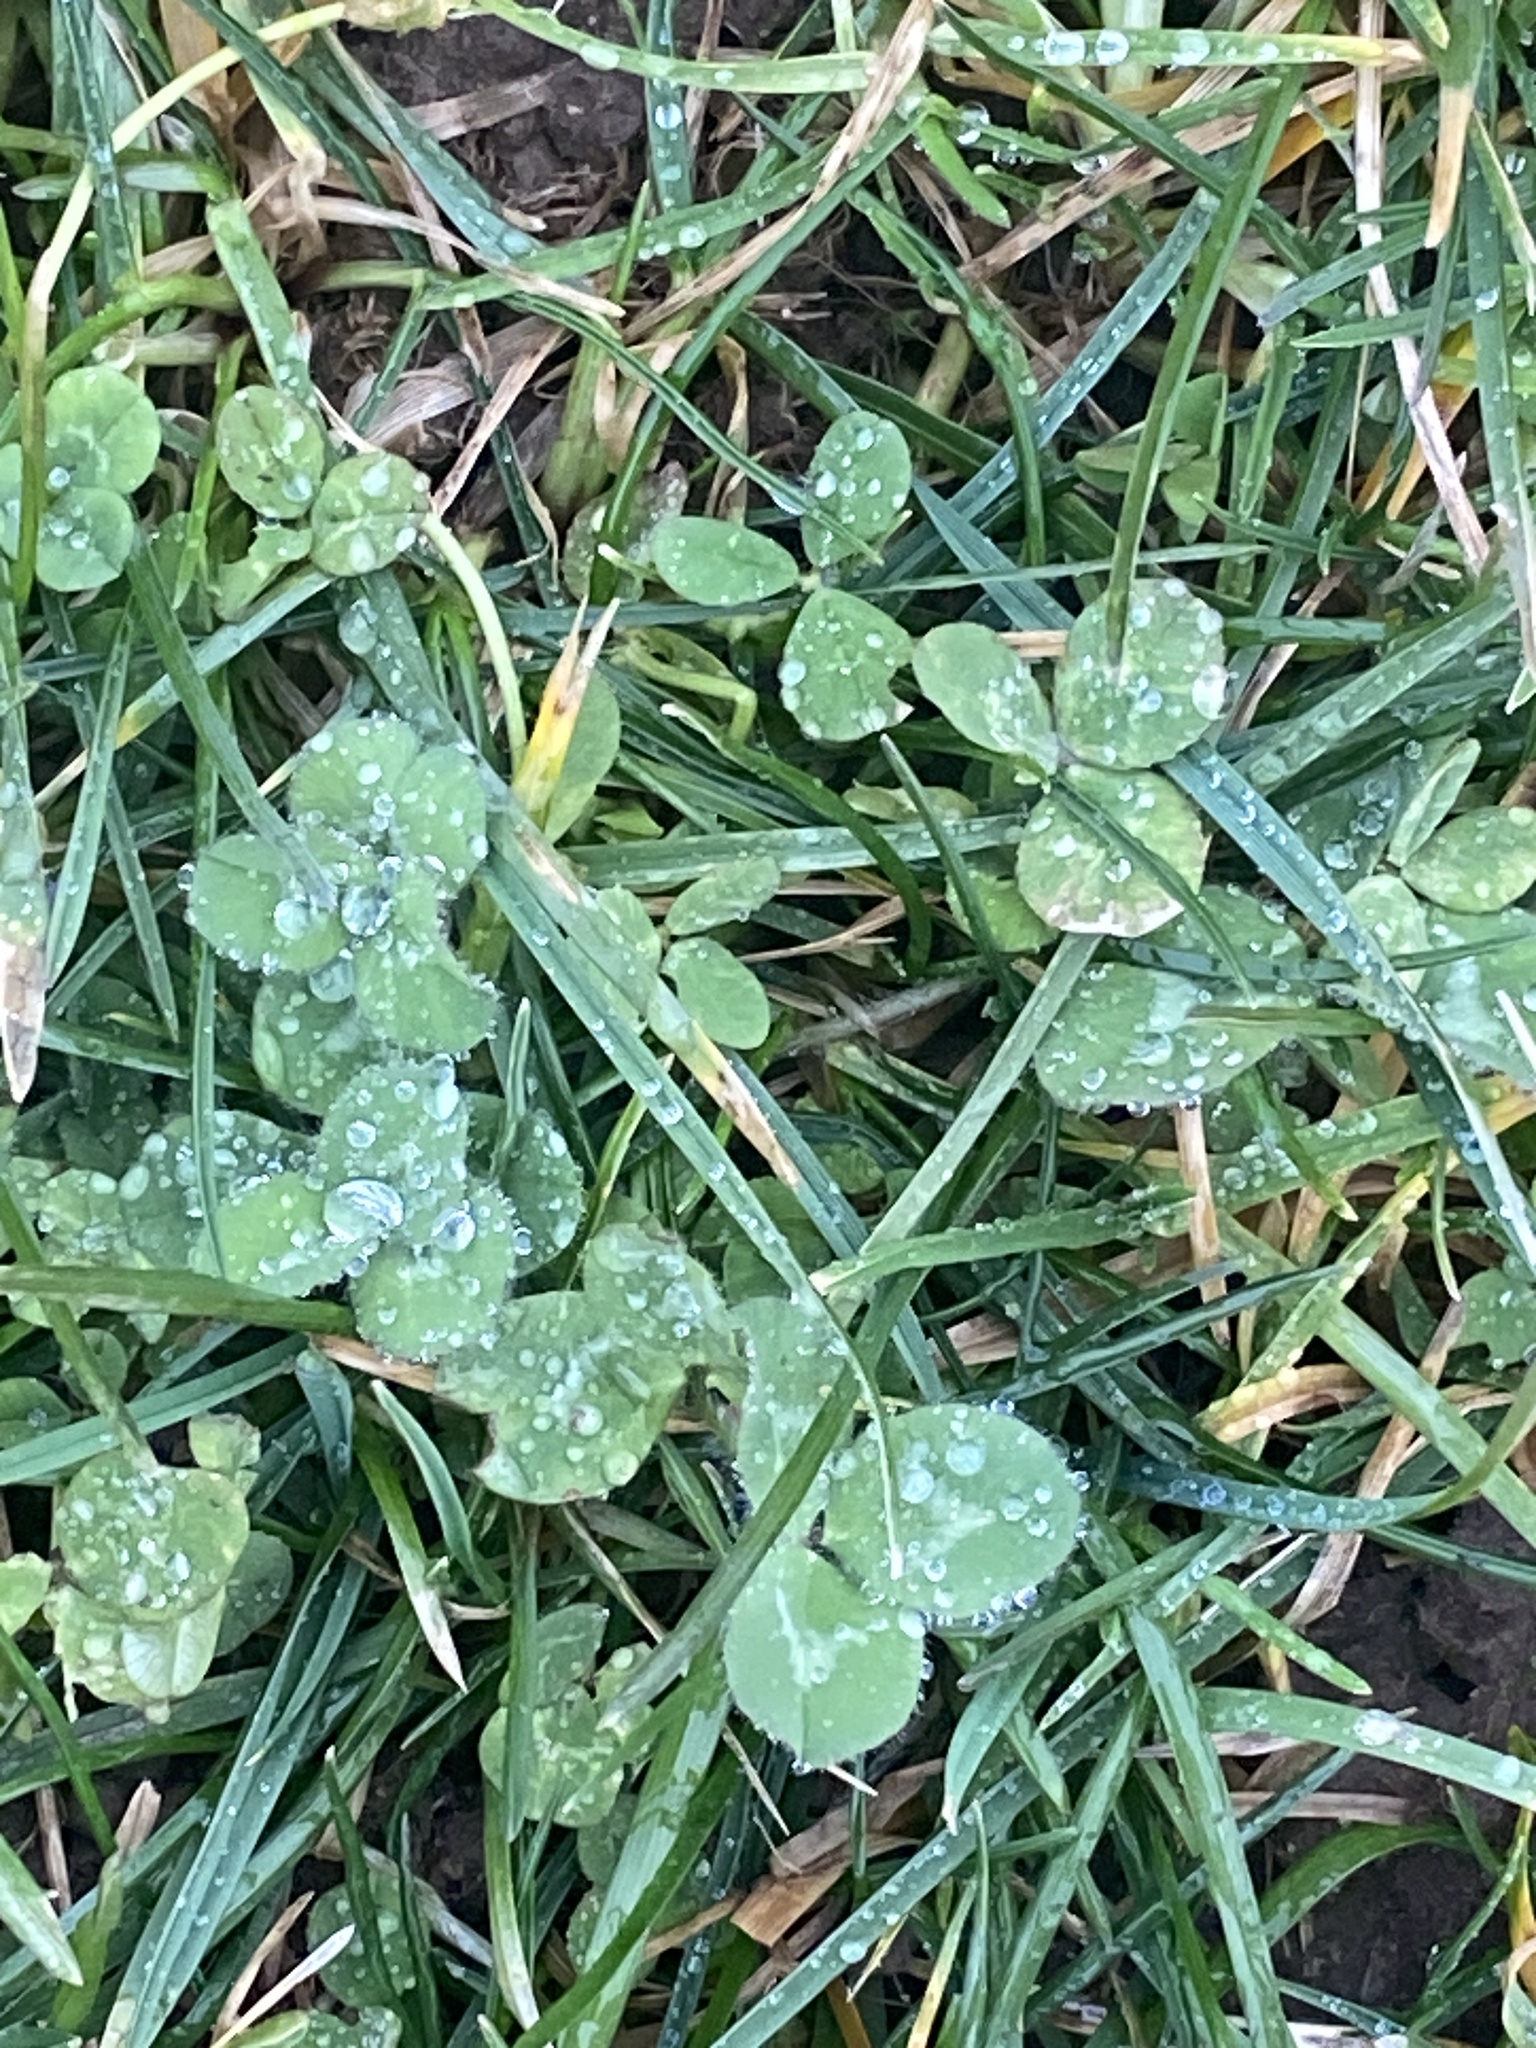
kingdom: Plantae
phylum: Tracheophyta
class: Magnoliopsida
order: Fabales
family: Fabaceae
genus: Trifolium
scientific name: Trifolium repens
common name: White clover
